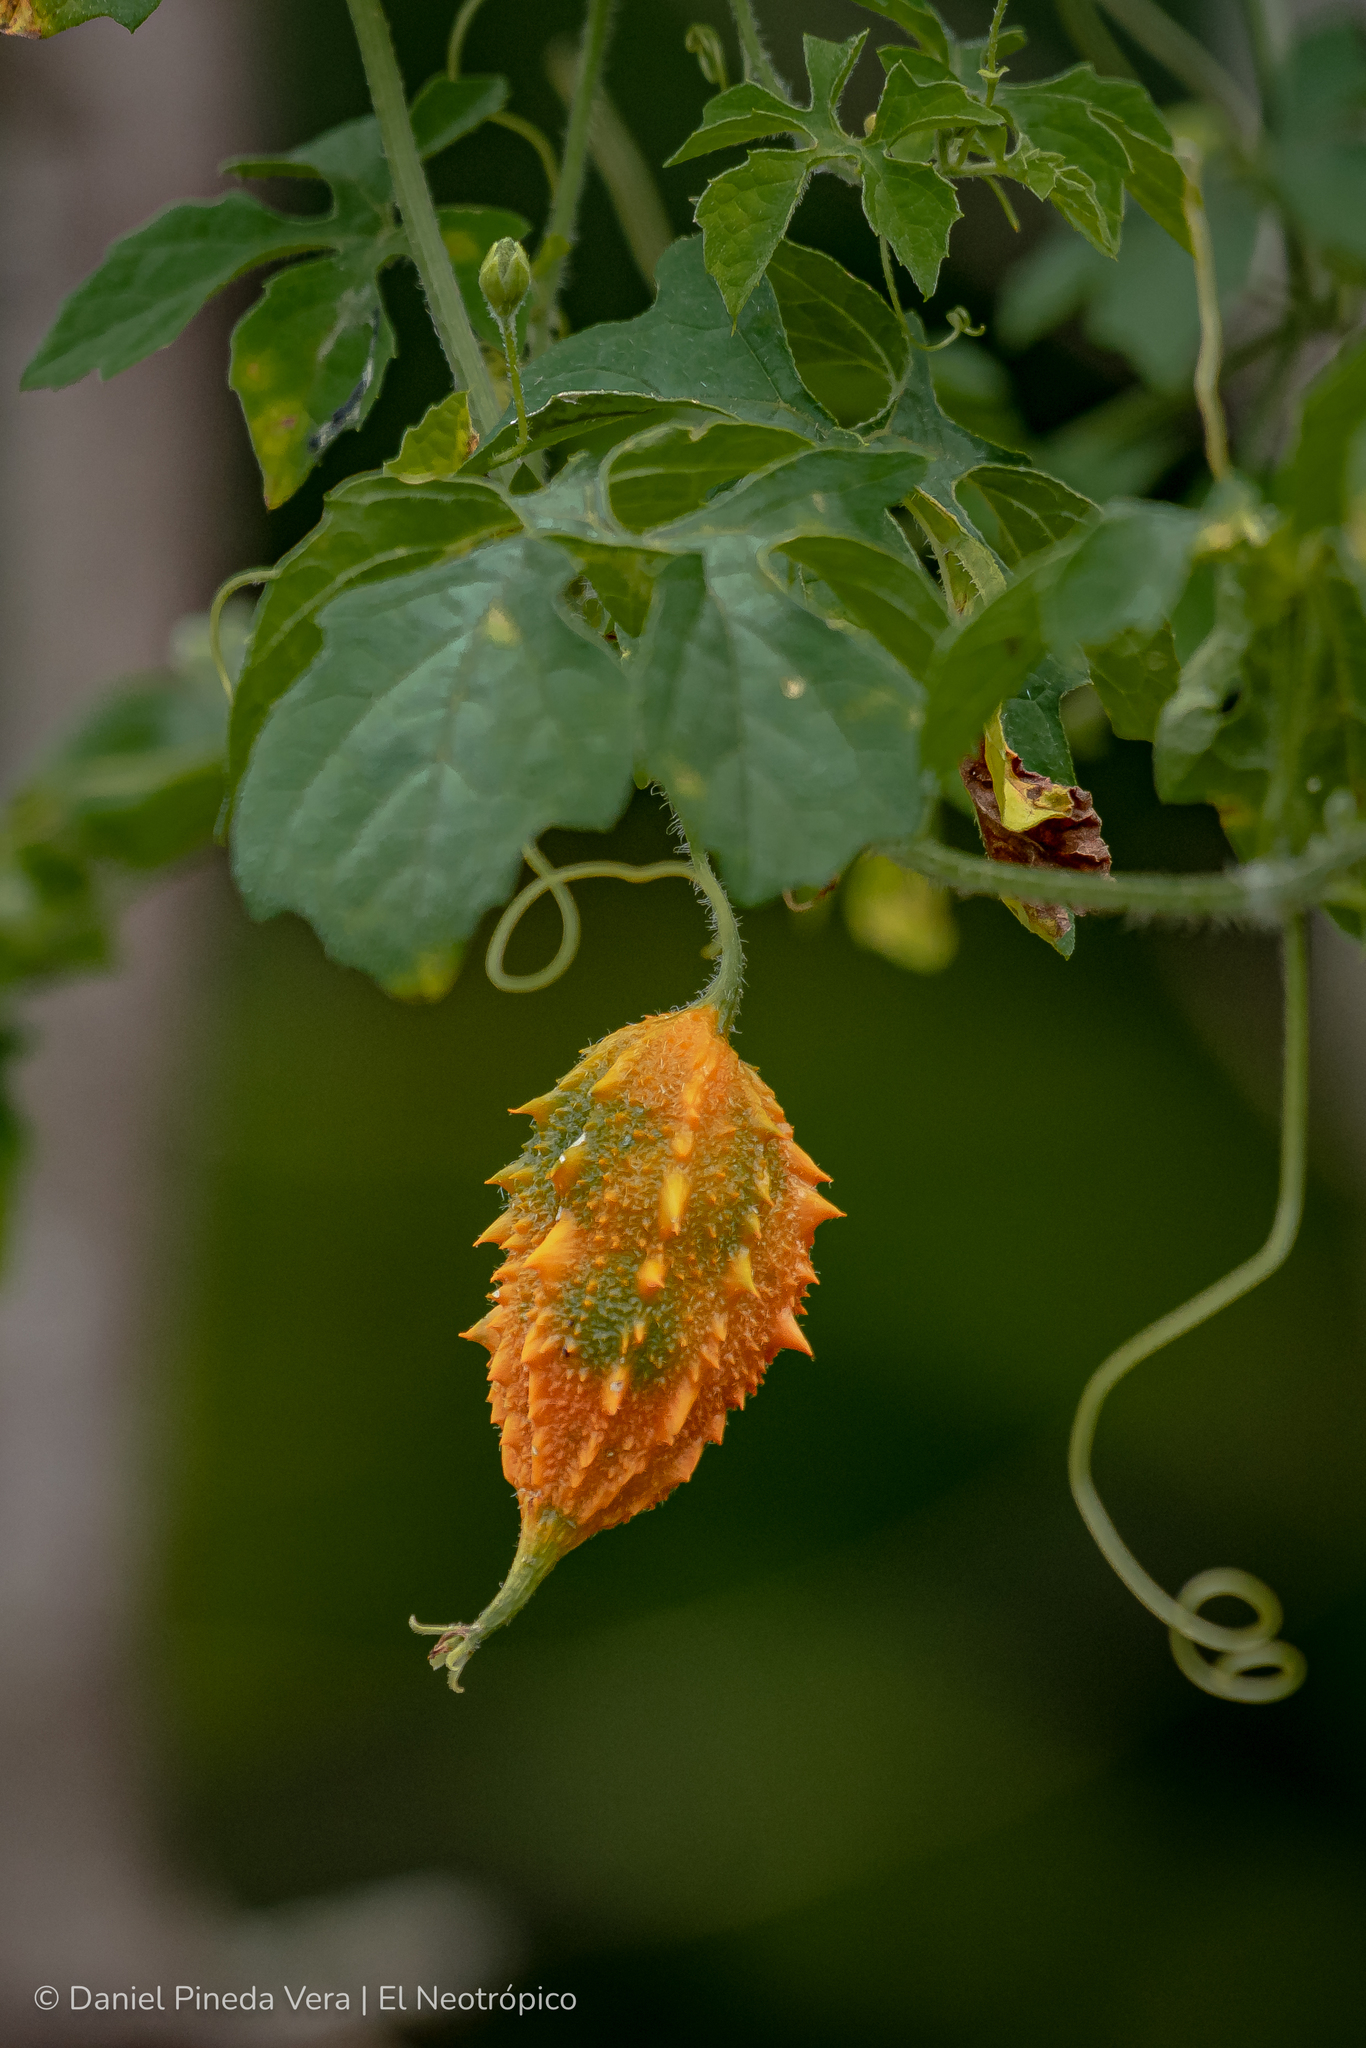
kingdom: Plantae
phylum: Tracheophyta
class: Magnoliopsida
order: Cucurbitales
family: Cucurbitaceae
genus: Momordica
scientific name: Momordica charantia
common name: Balsampear
